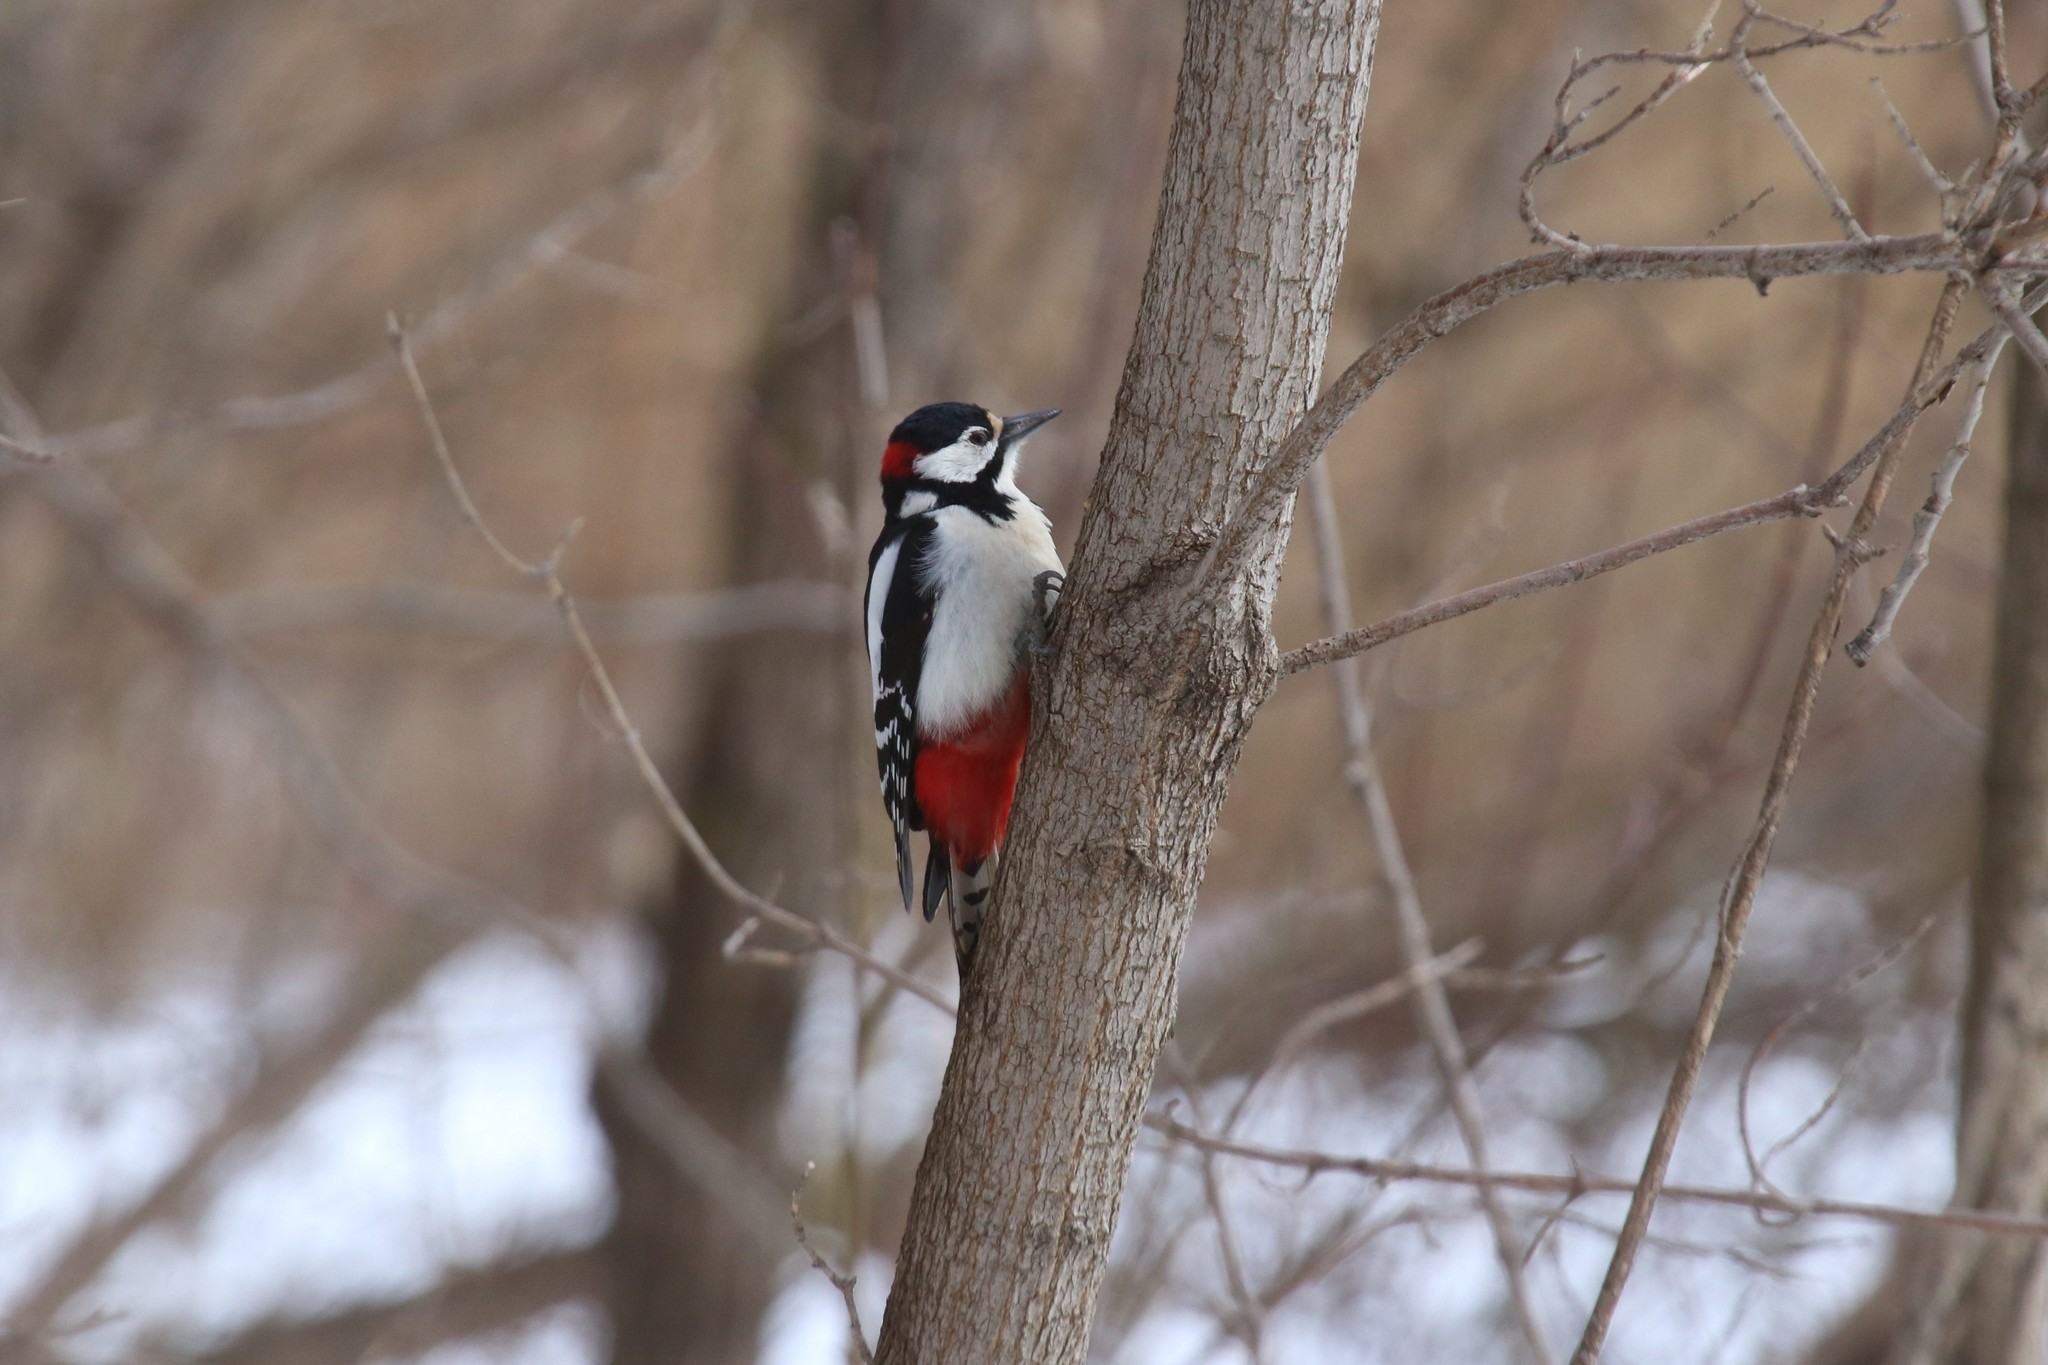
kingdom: Animalia
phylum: Chordata
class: Aves
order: Piciformes
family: Picidae
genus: Dendrocopos
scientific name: Dendrocopos major
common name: Great spotted woodpecker
